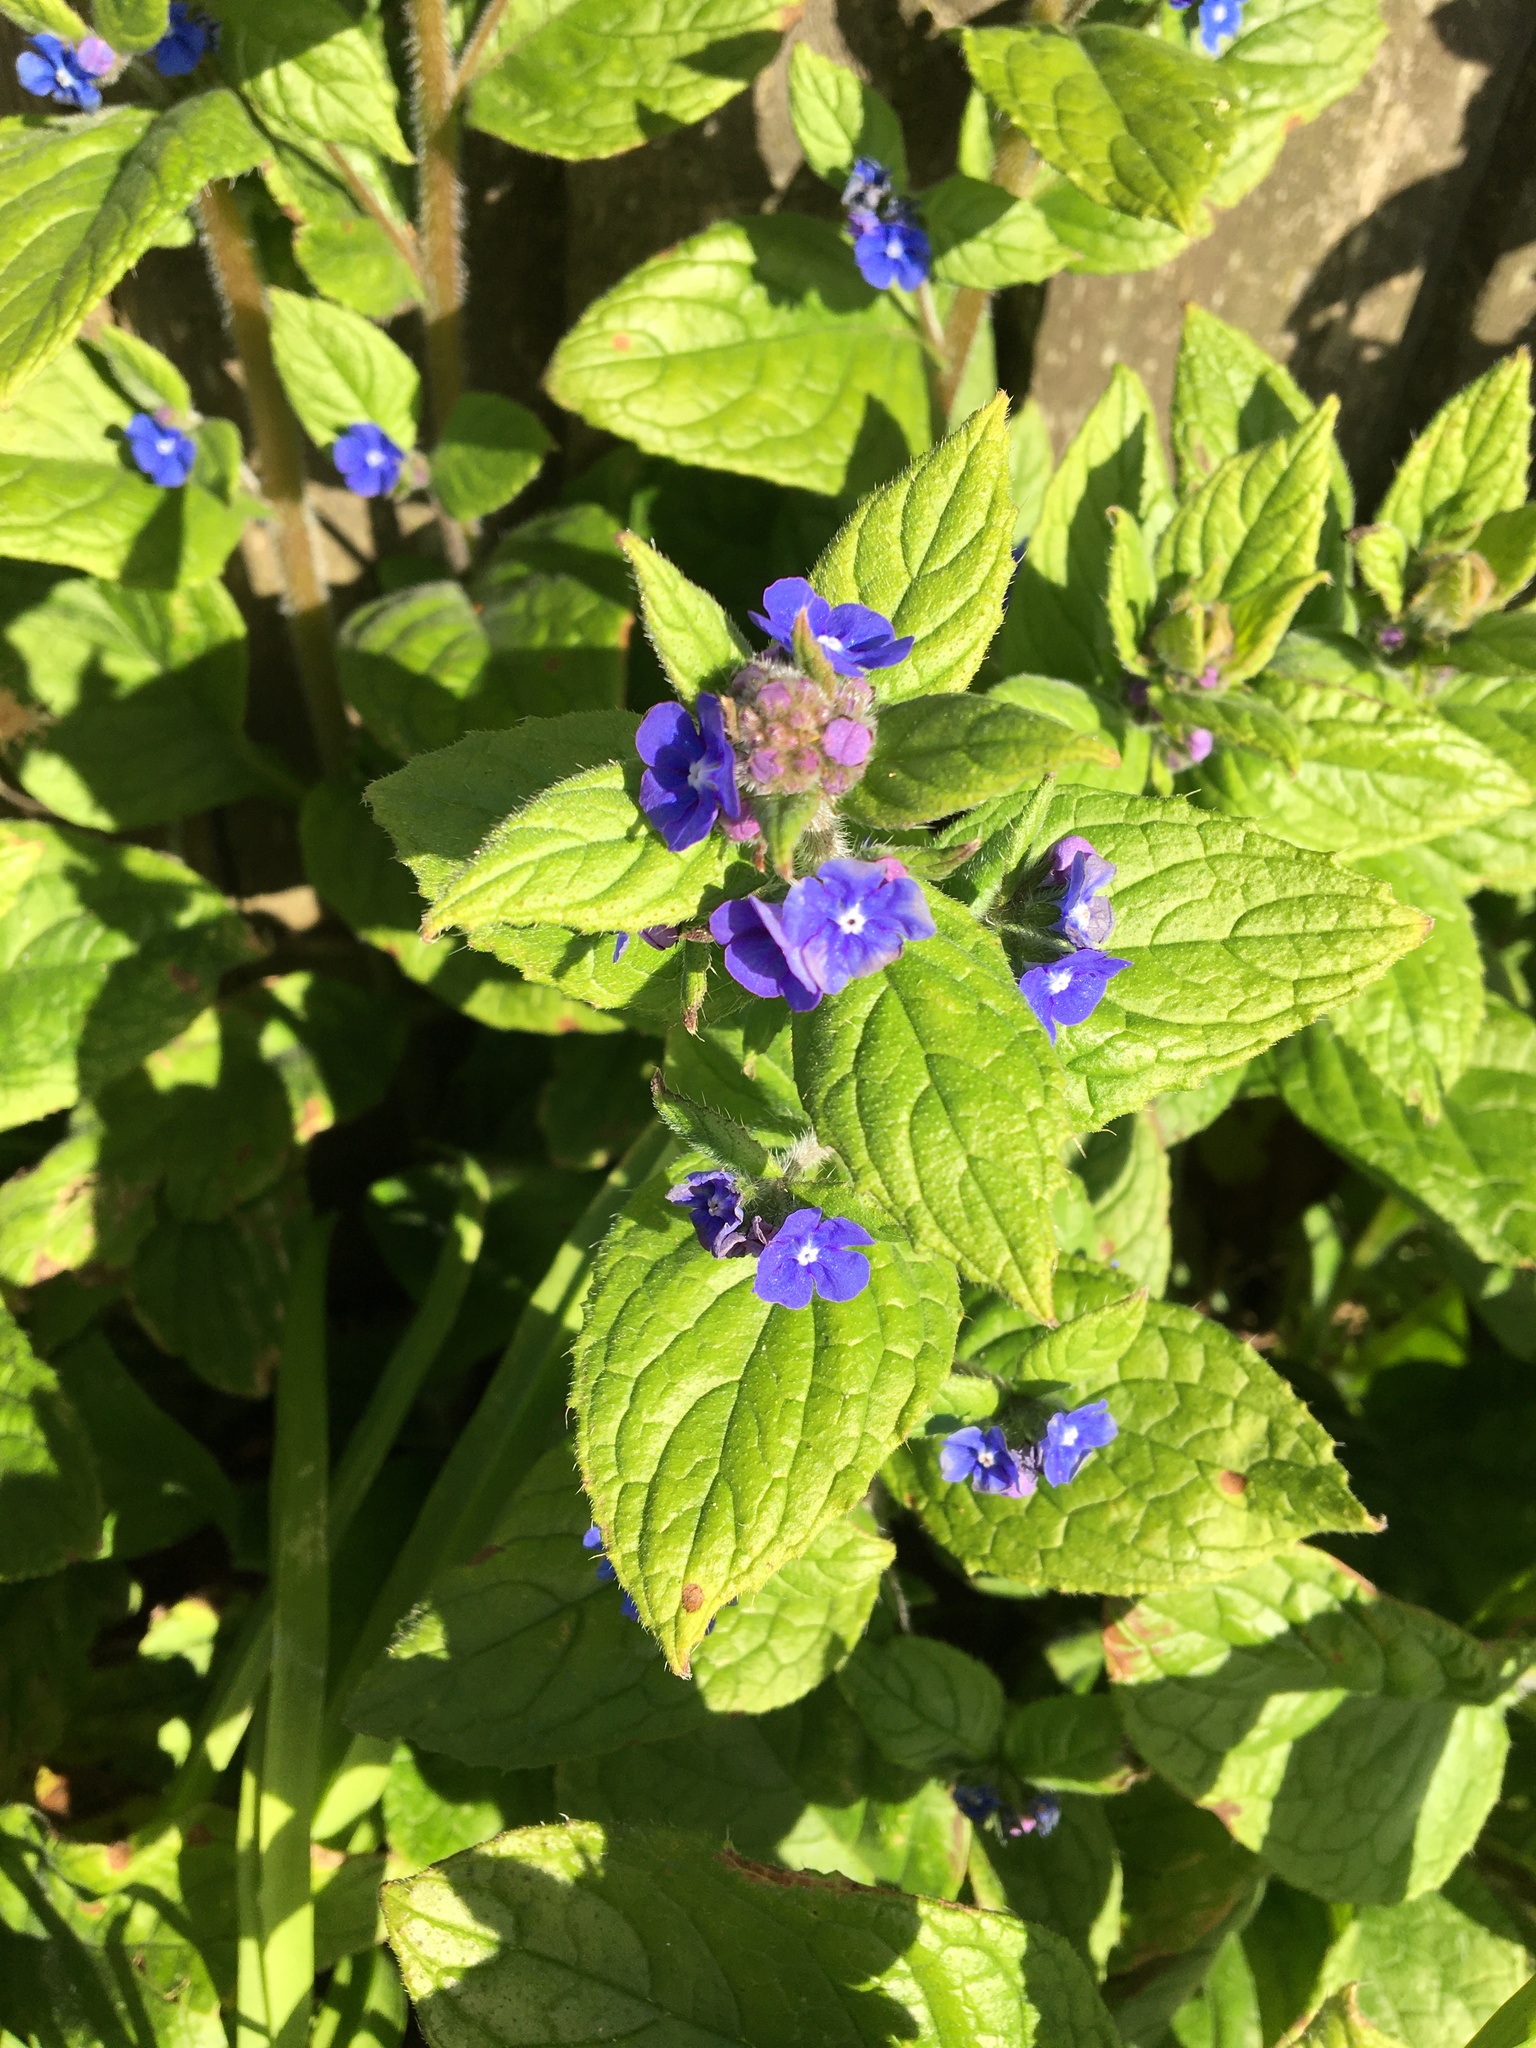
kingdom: Plantae
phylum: Tracheophyta
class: Magnoliopsida
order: Boraginales
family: Boraginaceae
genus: Pentaglottis
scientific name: Pentaglottis sempervirens
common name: Green alkanet
